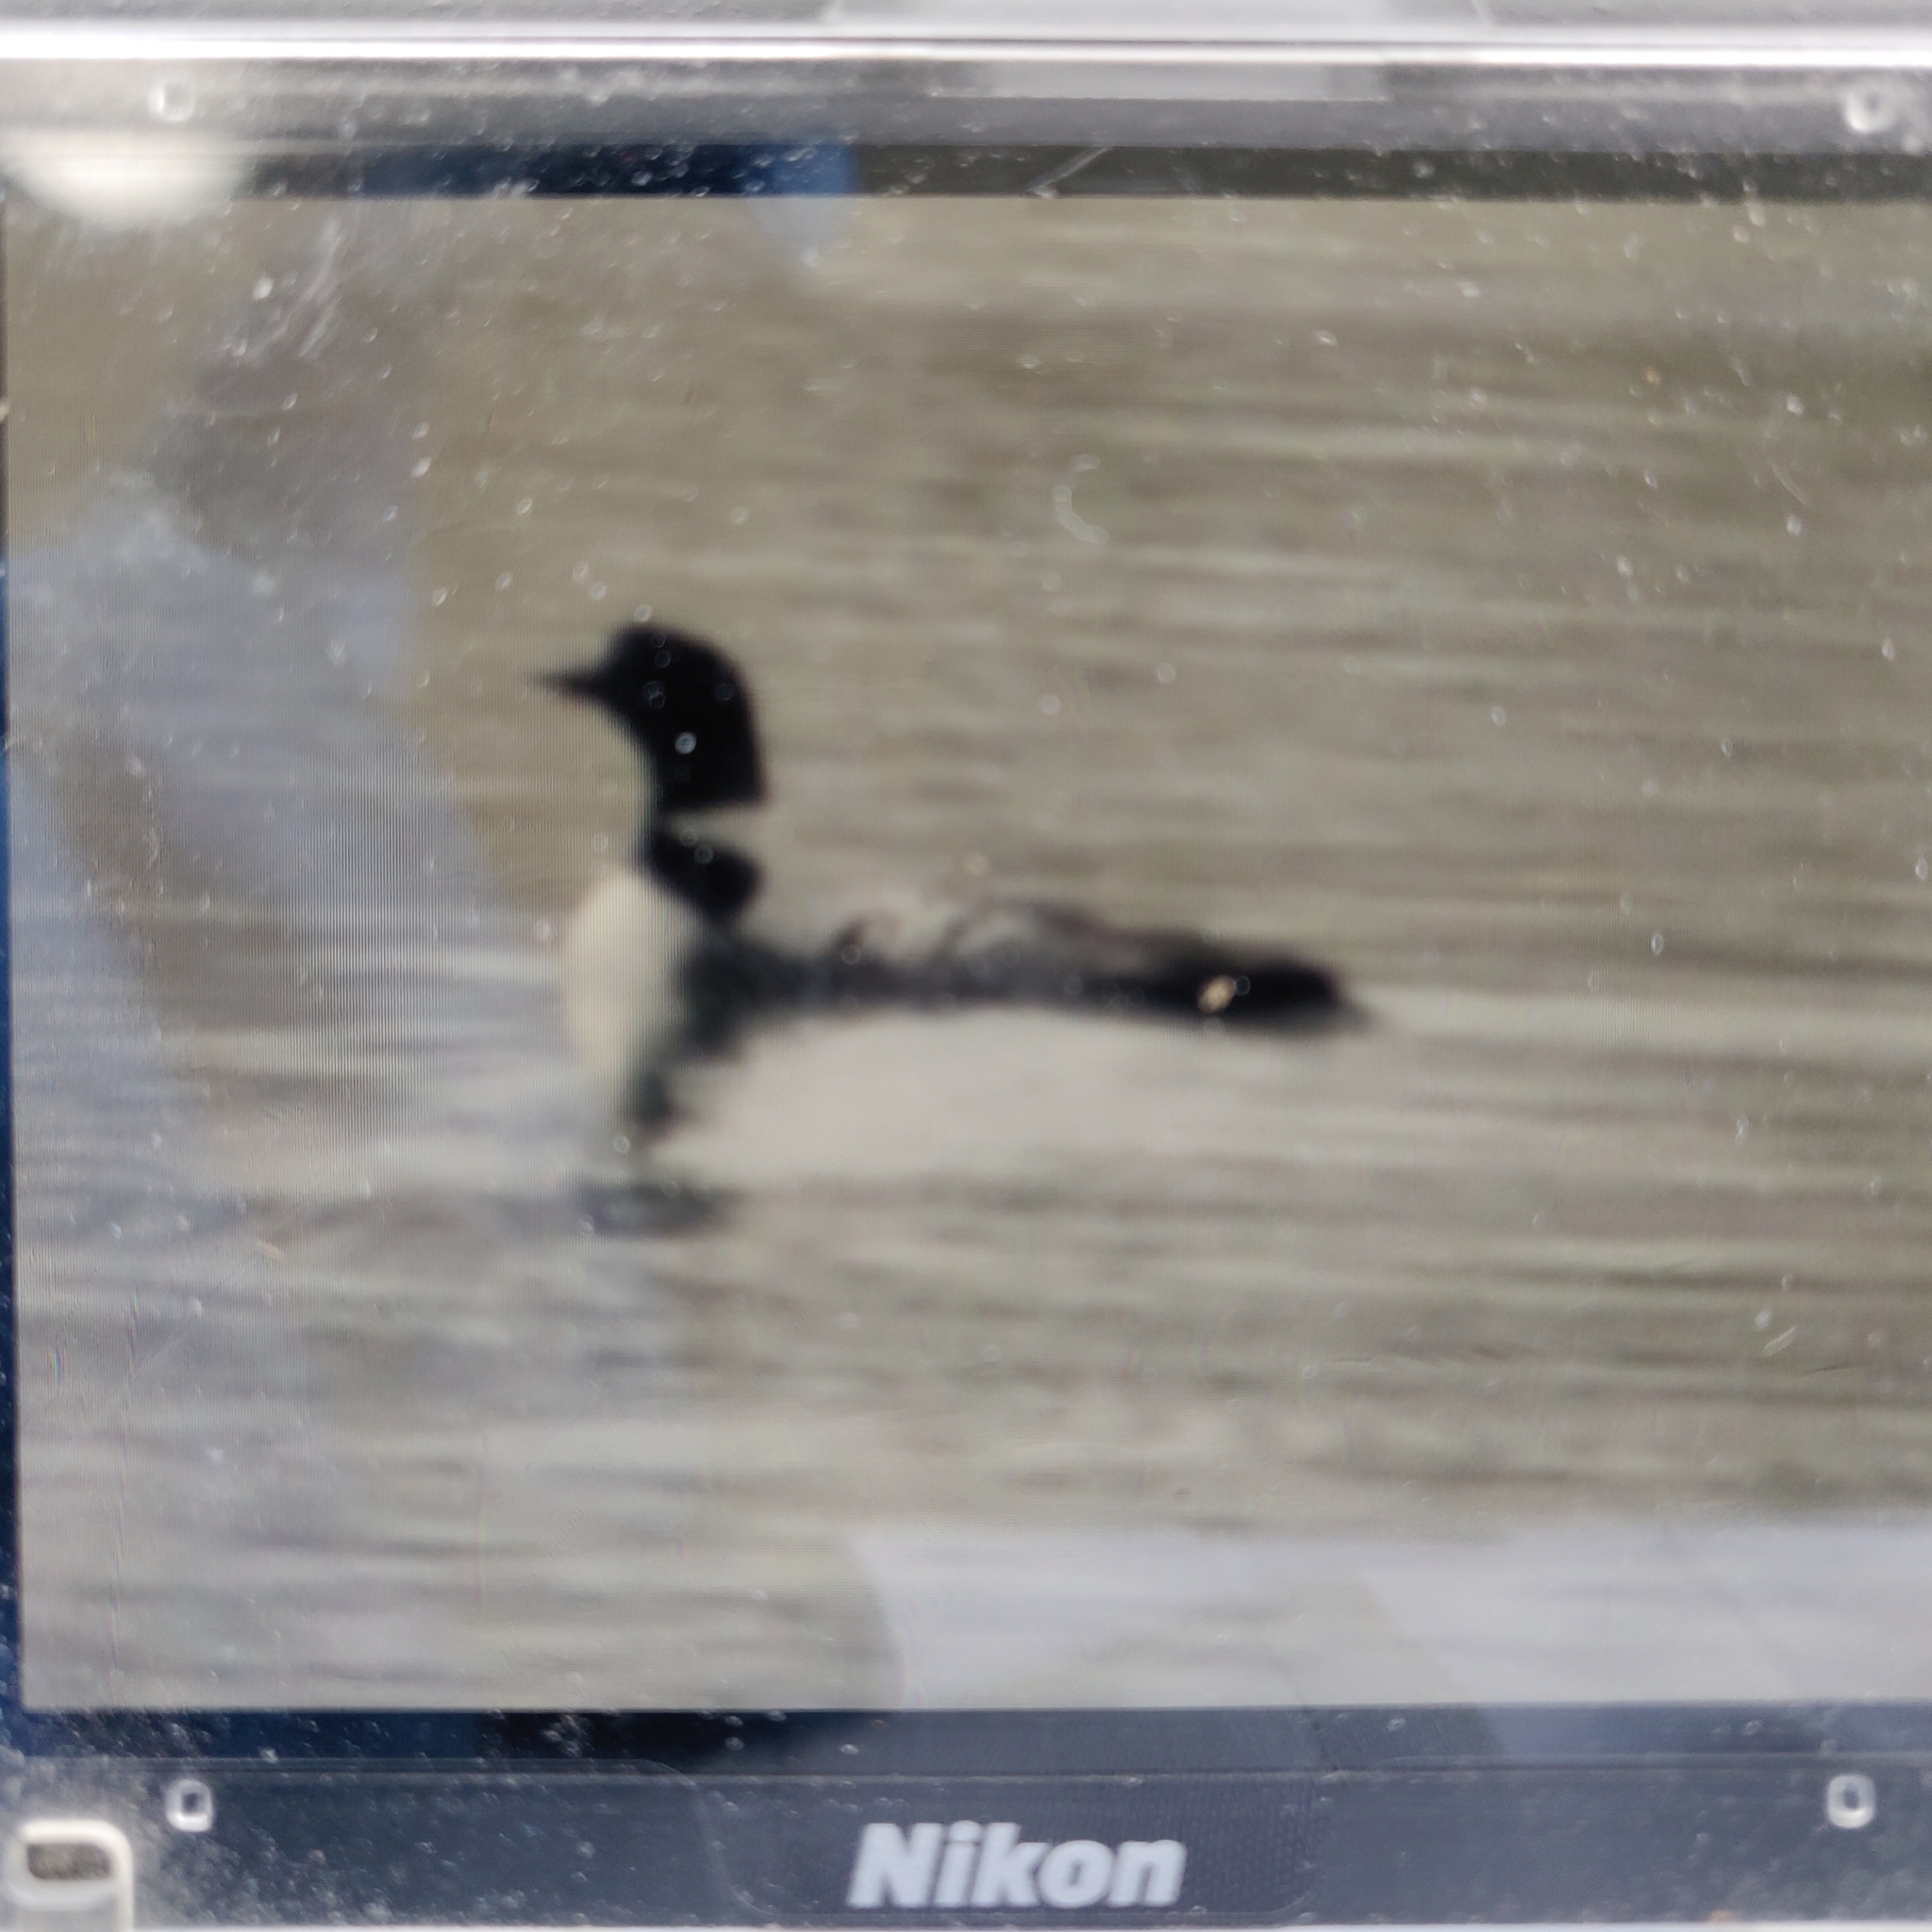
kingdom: Animalia
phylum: Chordata
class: Aves
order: Gaviiformes
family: Gaviidae
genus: Gavia
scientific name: Gavia immer
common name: Common loon
